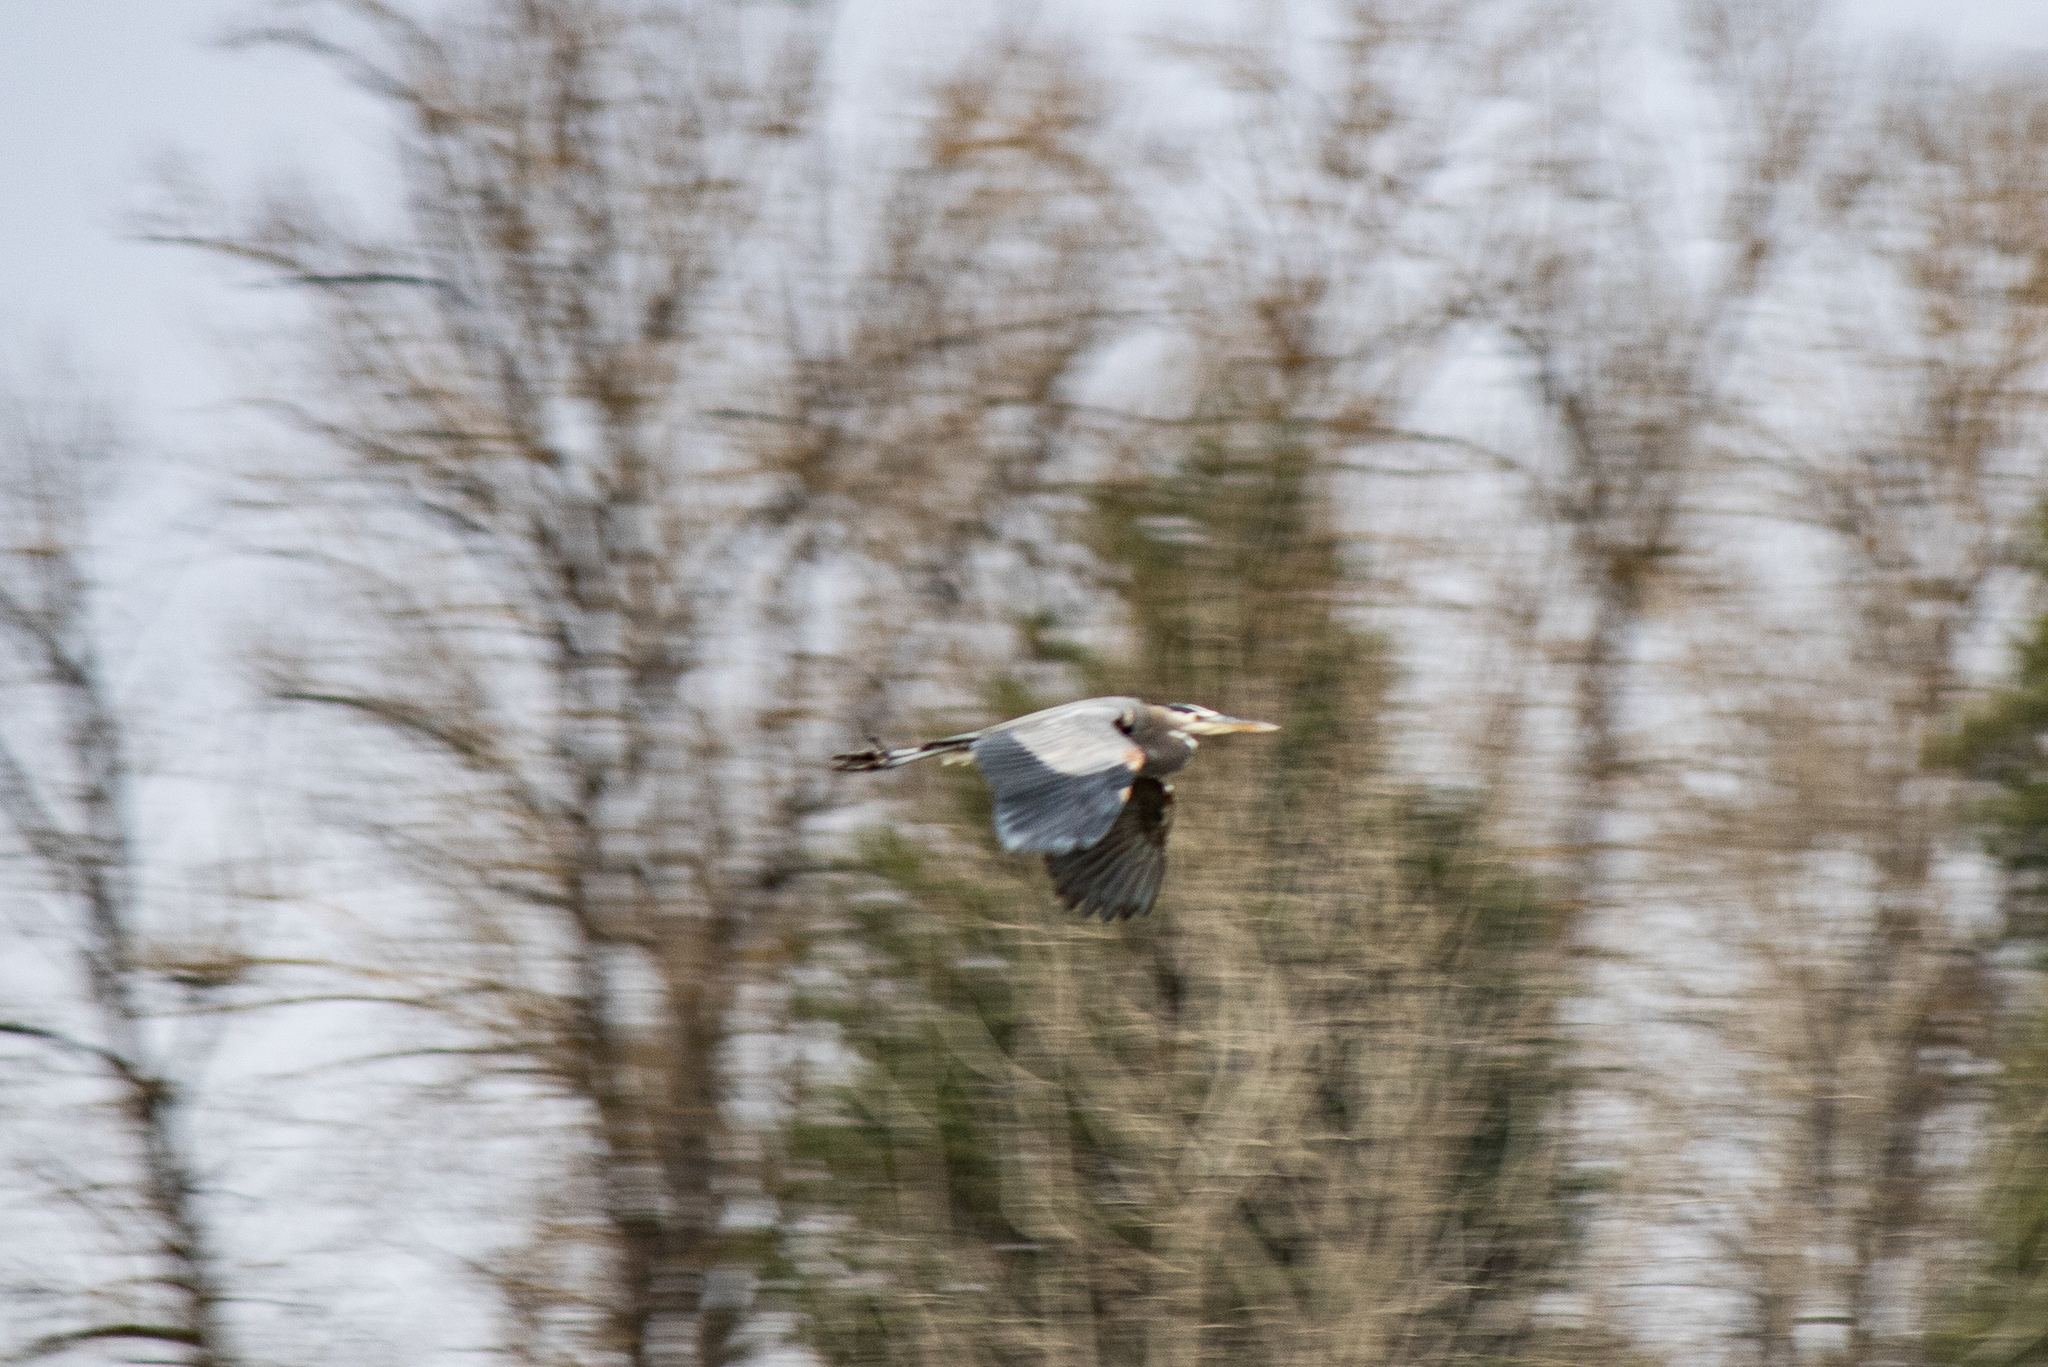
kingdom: Animalia
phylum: Chordata
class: Aves
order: Pelecaniformes
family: Ardeidae
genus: Ardea
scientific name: Ardea herodias
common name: Great blue heron
